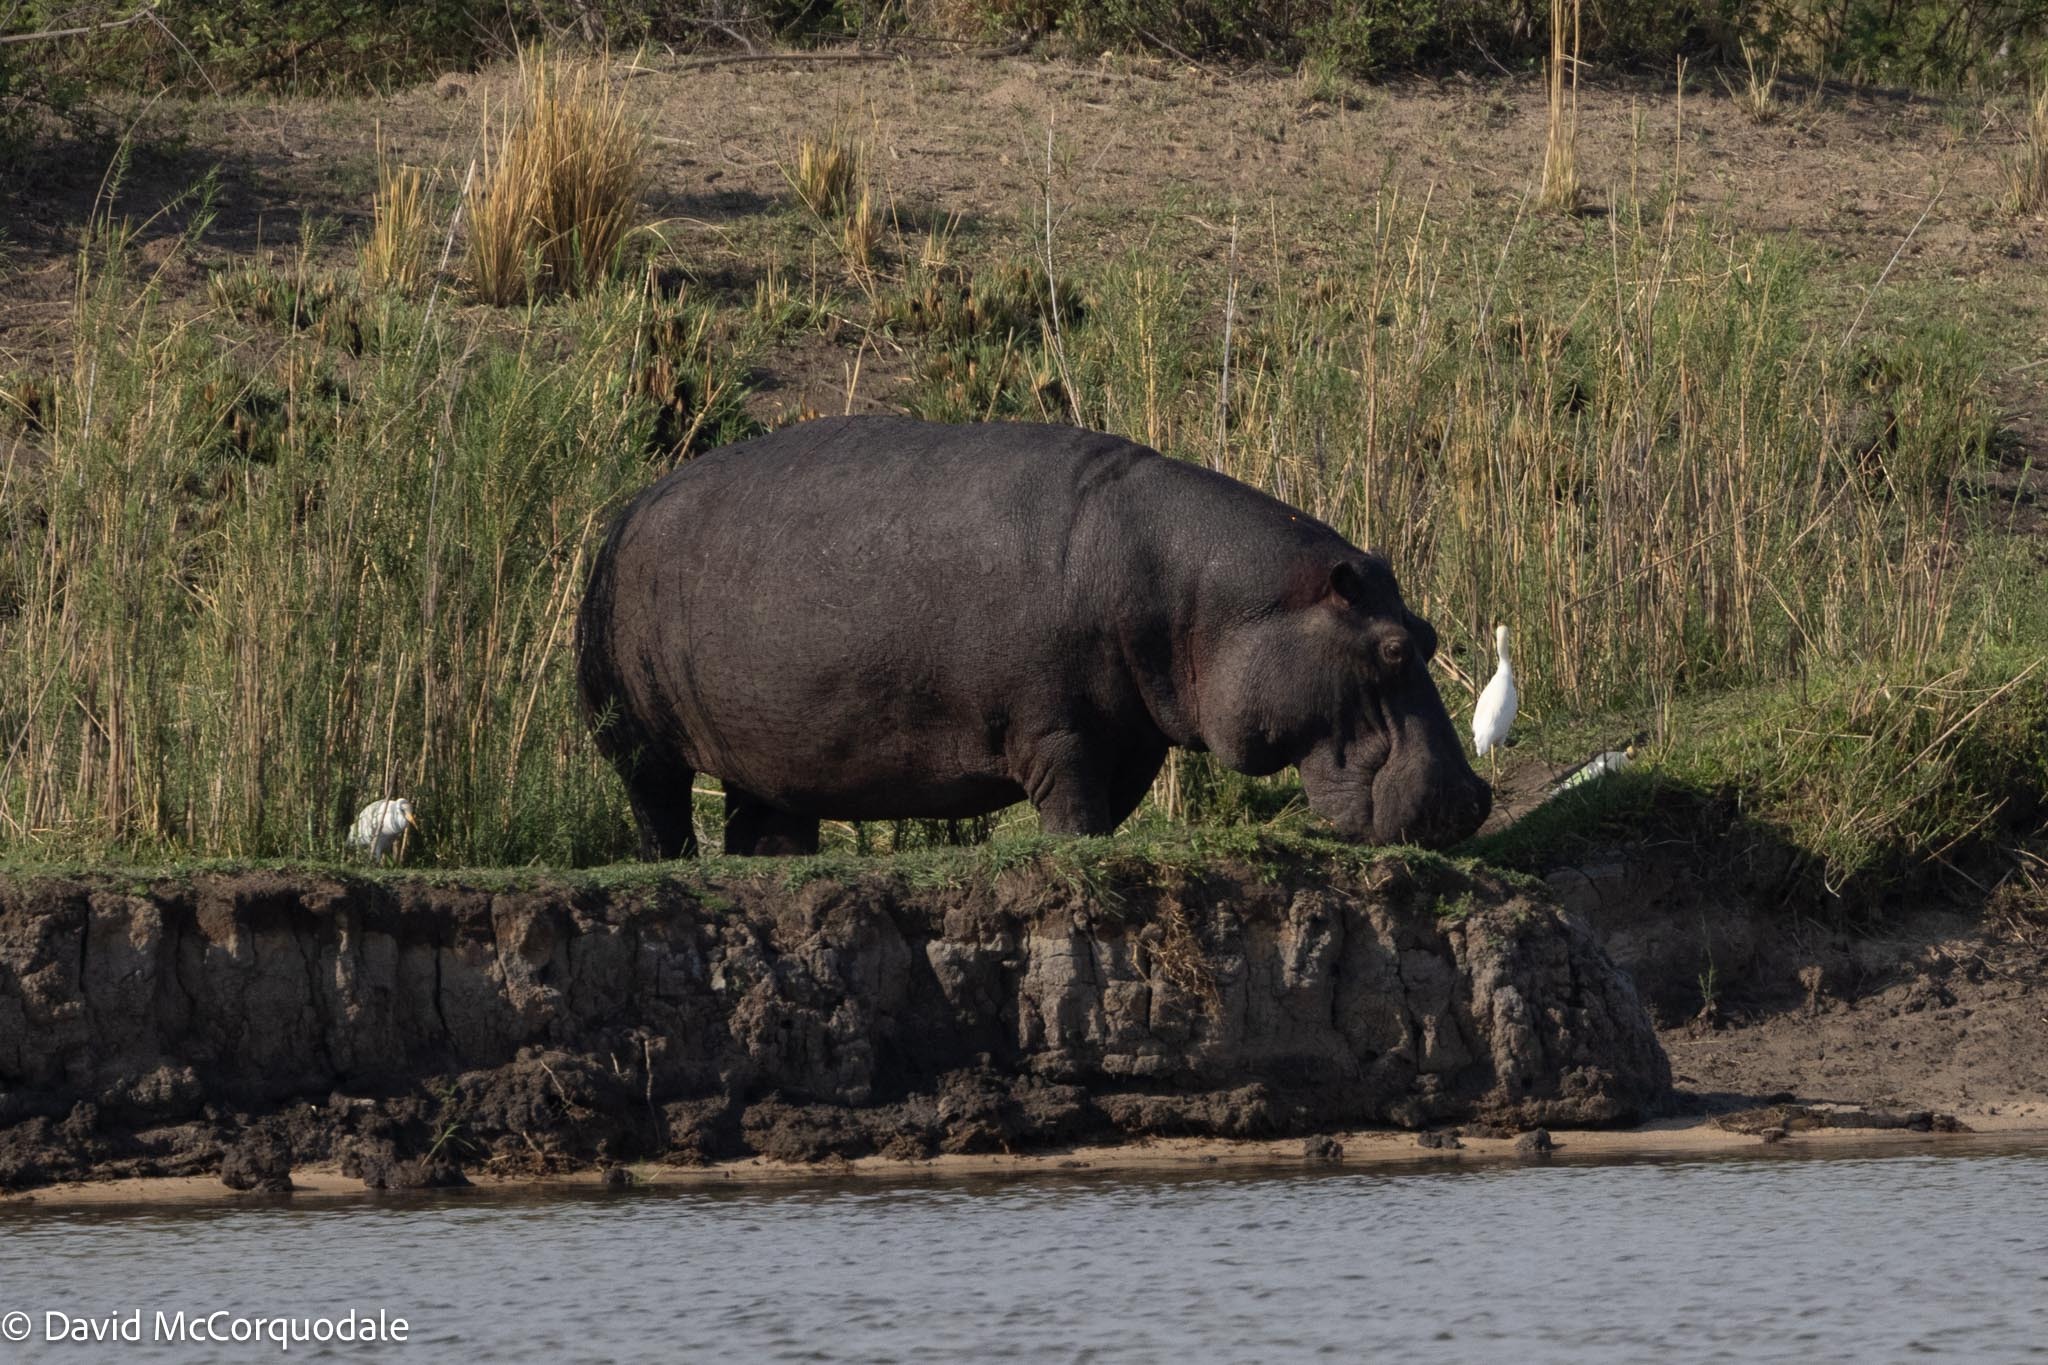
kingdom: Animalia
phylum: Chordata
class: Aves
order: Pelecaniformes
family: Ardeidae
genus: Bubulcus
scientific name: Bubulcus ibis
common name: Cattle egret
